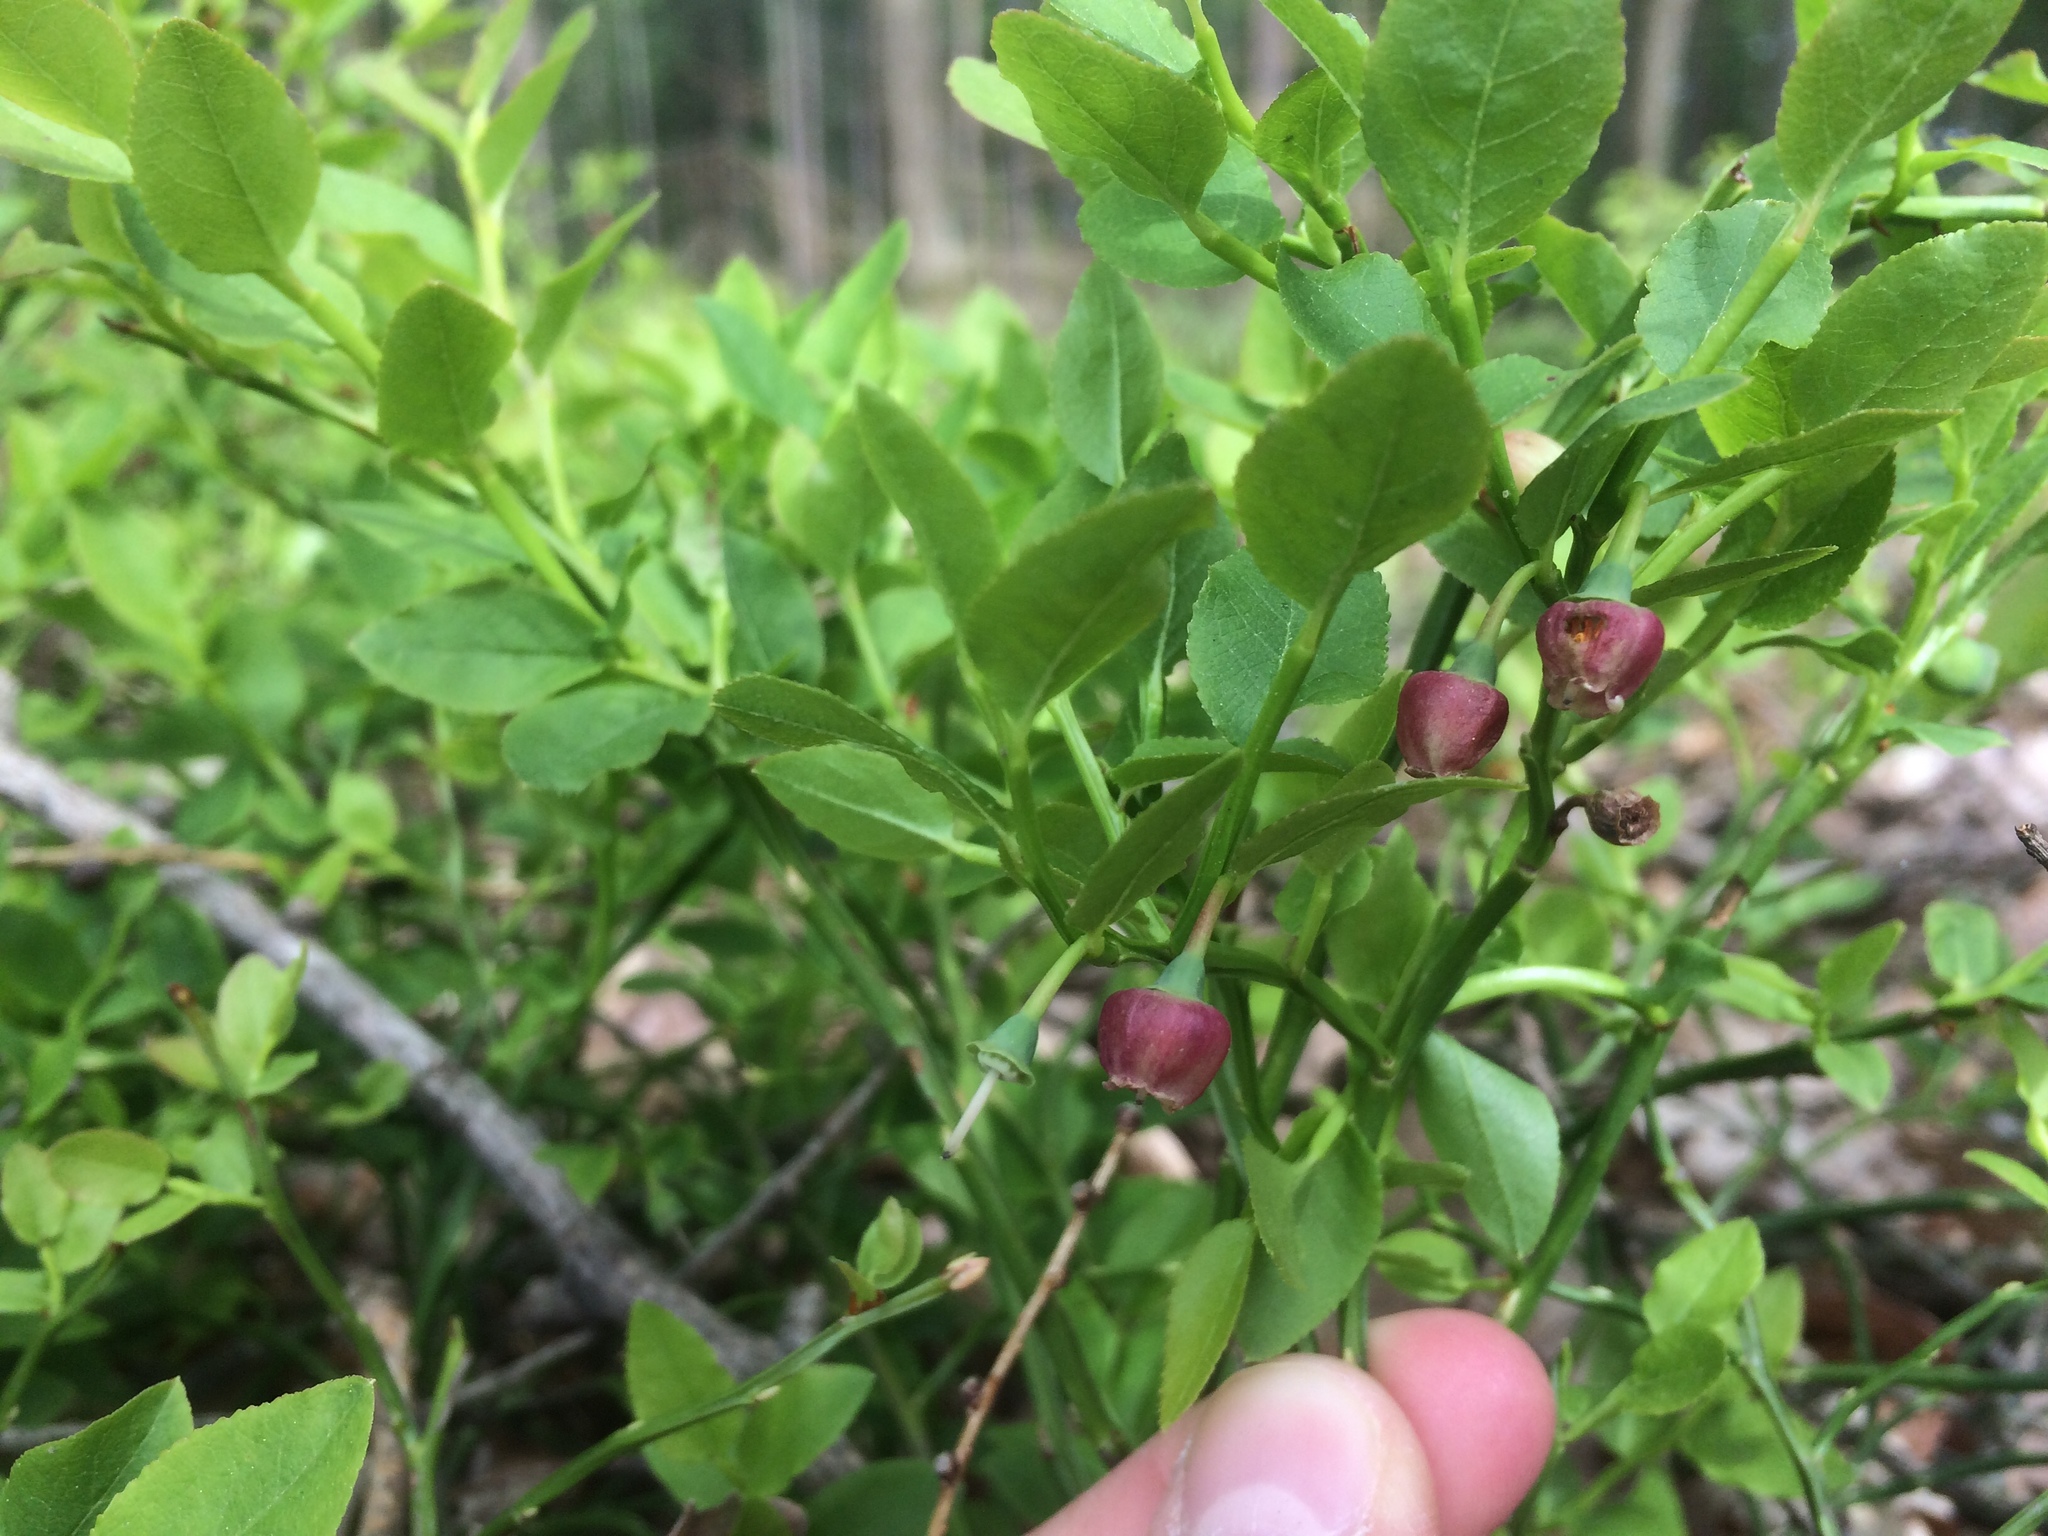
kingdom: Plantae
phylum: Tracheophyta
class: Magnoliopsida
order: Ericales
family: Ericaceae
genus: Vaccinium
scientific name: Vaccinium myrtillus
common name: Bilberry
